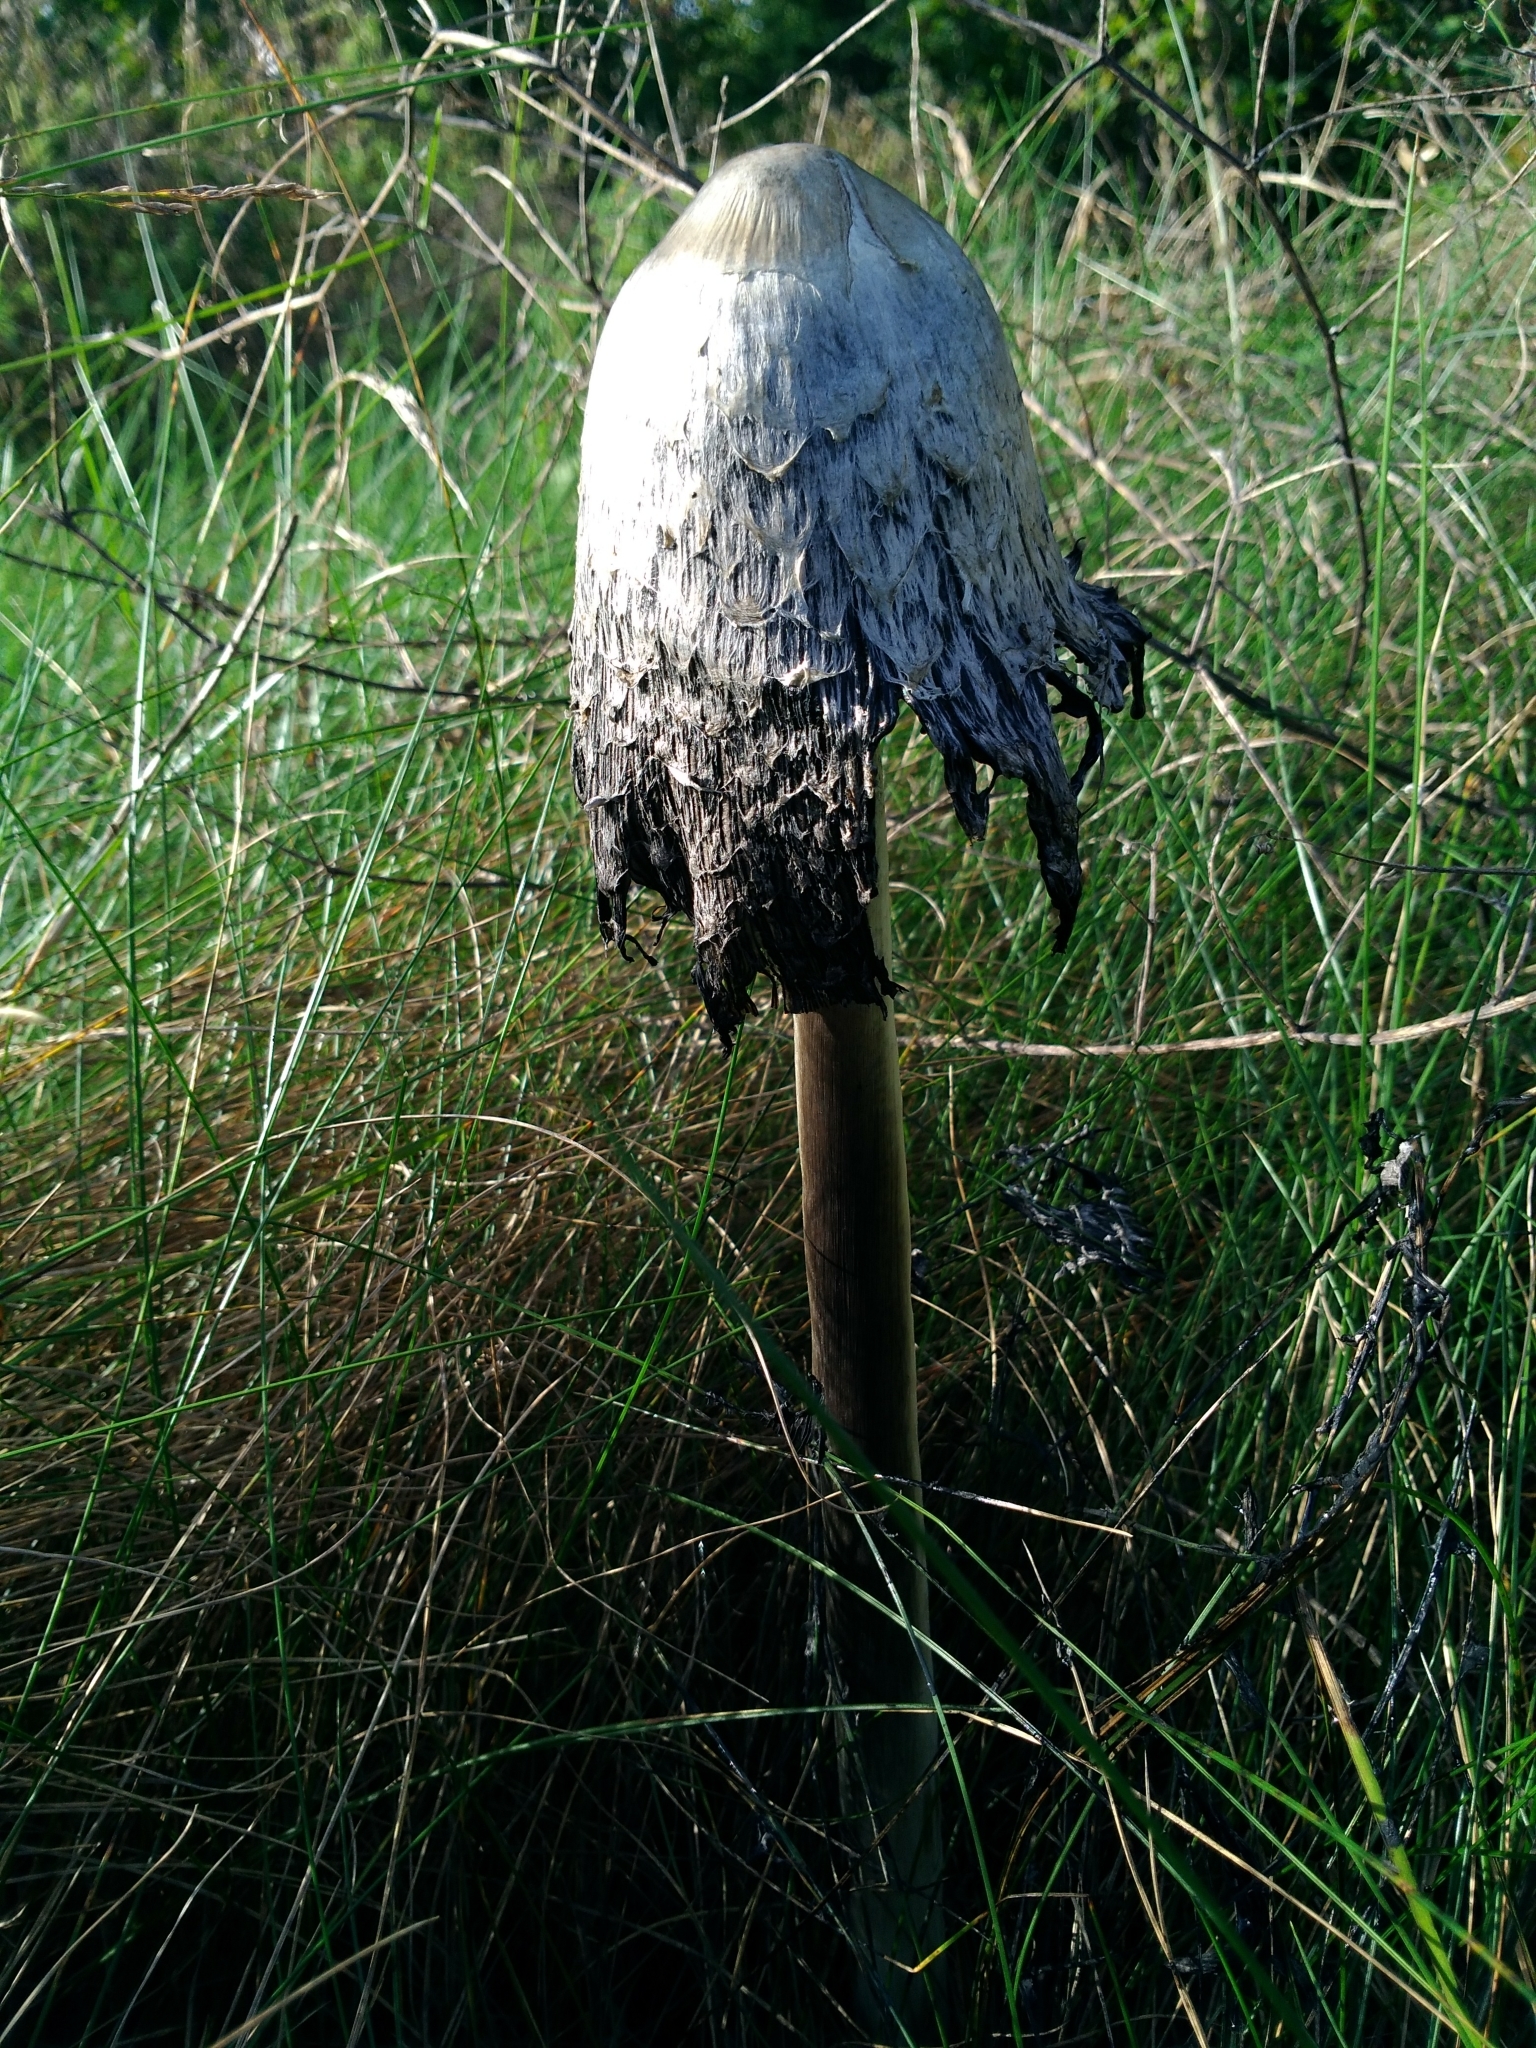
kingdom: Fungi
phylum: Basidiomycota
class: Agaricomycetes
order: Agaricales
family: Agaricaceae
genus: Coprinus
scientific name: Coprinus comatus
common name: Lawyer's wig
